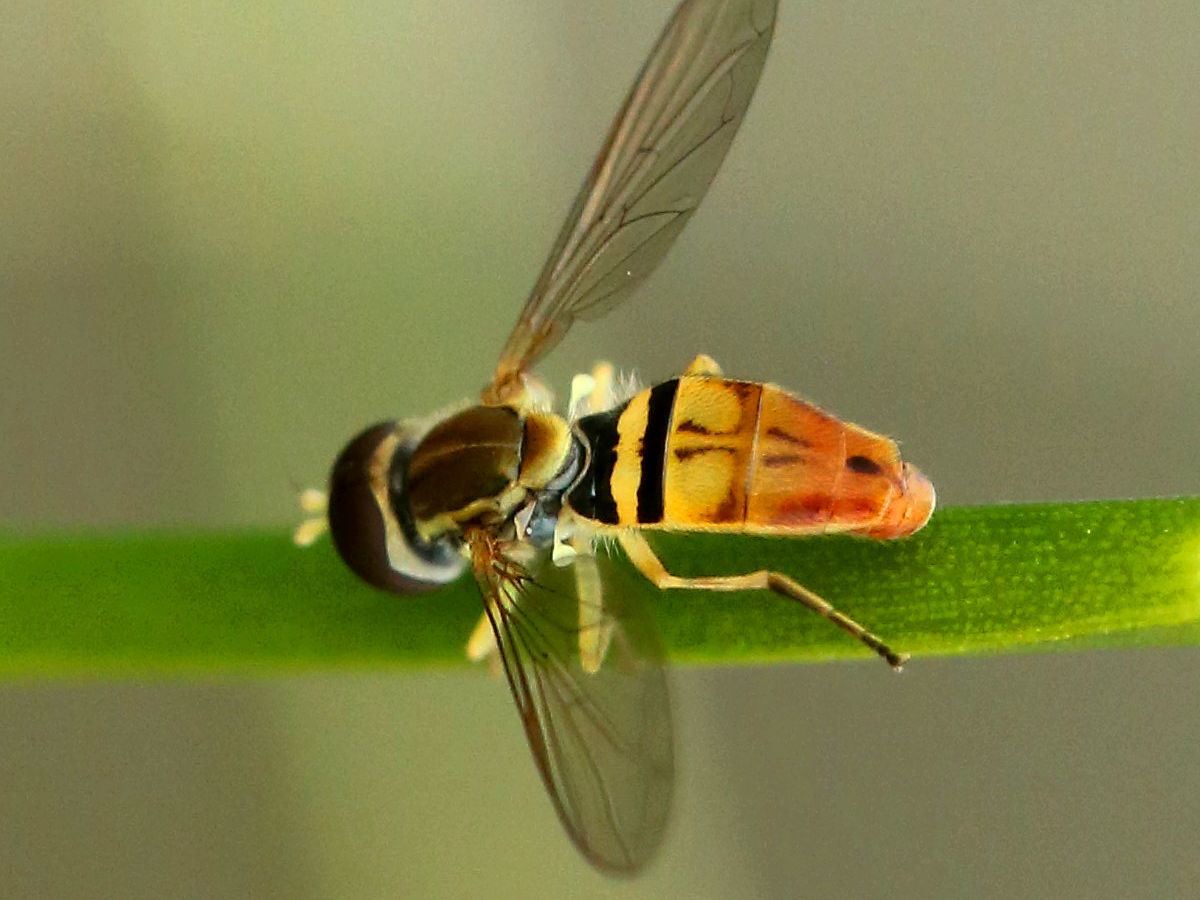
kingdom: Animalia
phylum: Arthropoda
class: Insecta
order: Diptera
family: Syrphidae
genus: Toxomerus
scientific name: Toxomerus marginatus
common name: Syrphid fly
